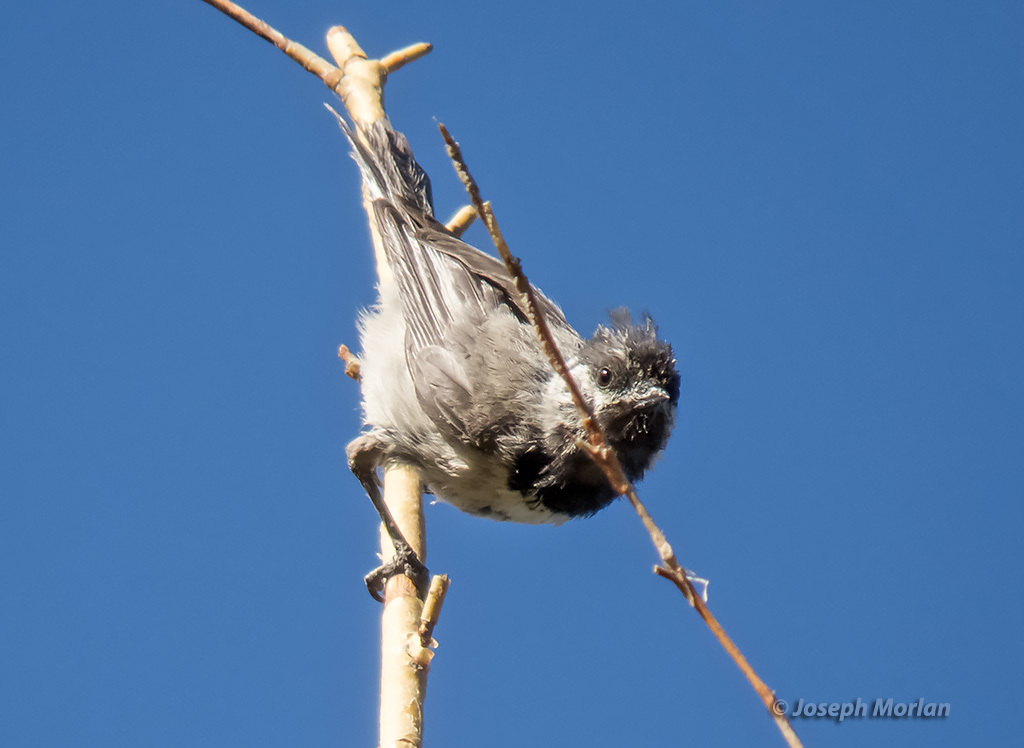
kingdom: Animalia
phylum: Chordata
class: Aves
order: Passeriformes
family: Paridae
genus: Poecile
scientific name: Poecile gambeli
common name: Mountain chickadee
